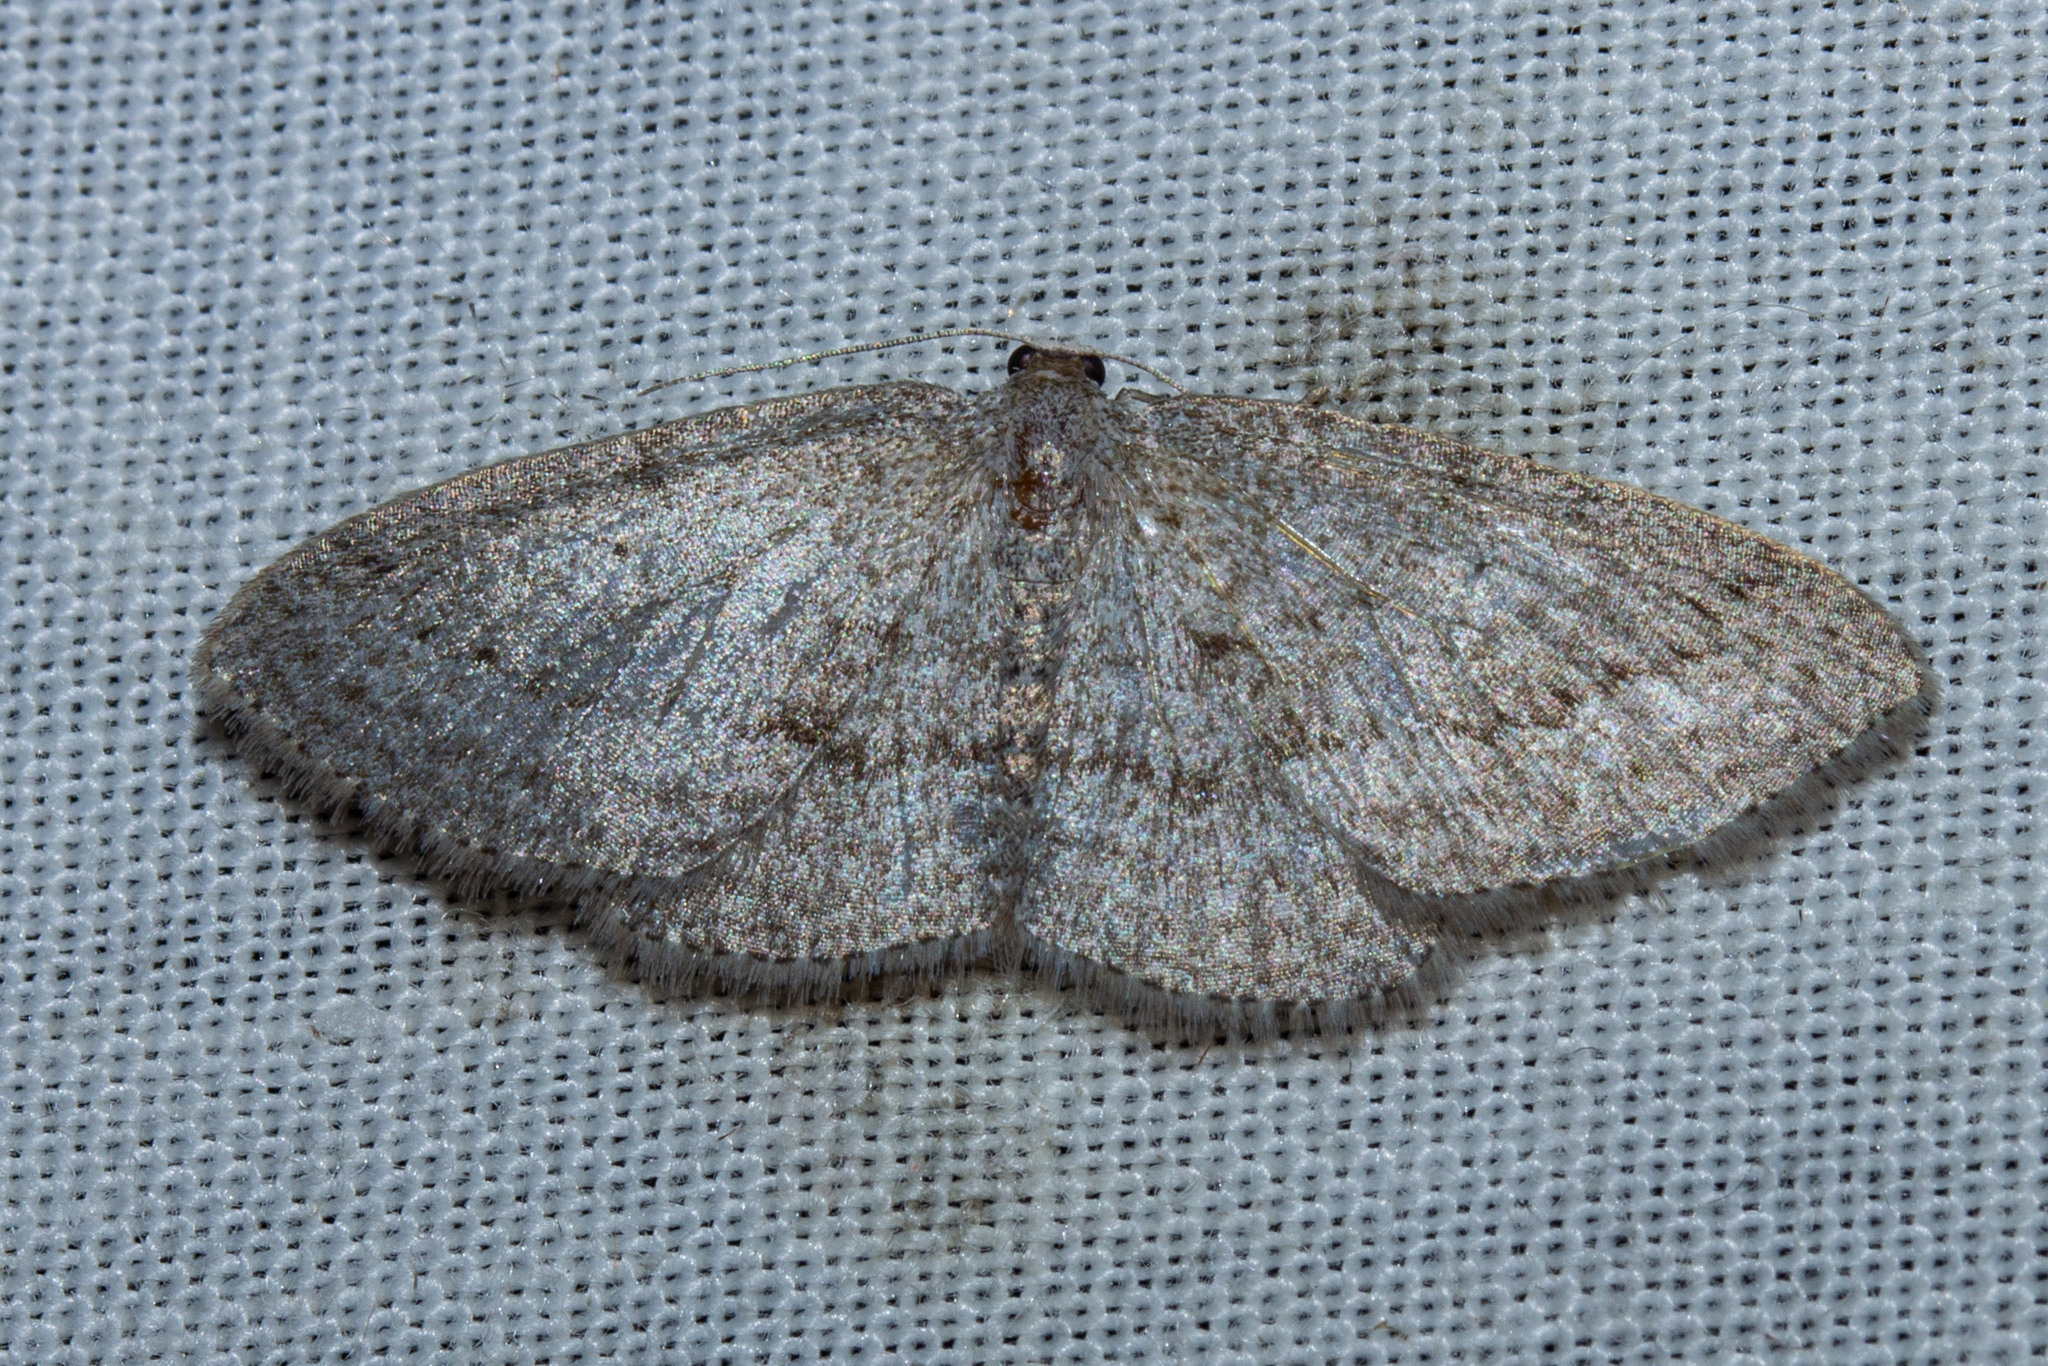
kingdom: Animalia
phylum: Arthropoda
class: Insecta
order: Lepidoptera
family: Geometridae
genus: Poecilasthena
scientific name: Poecilasthena schistaria
